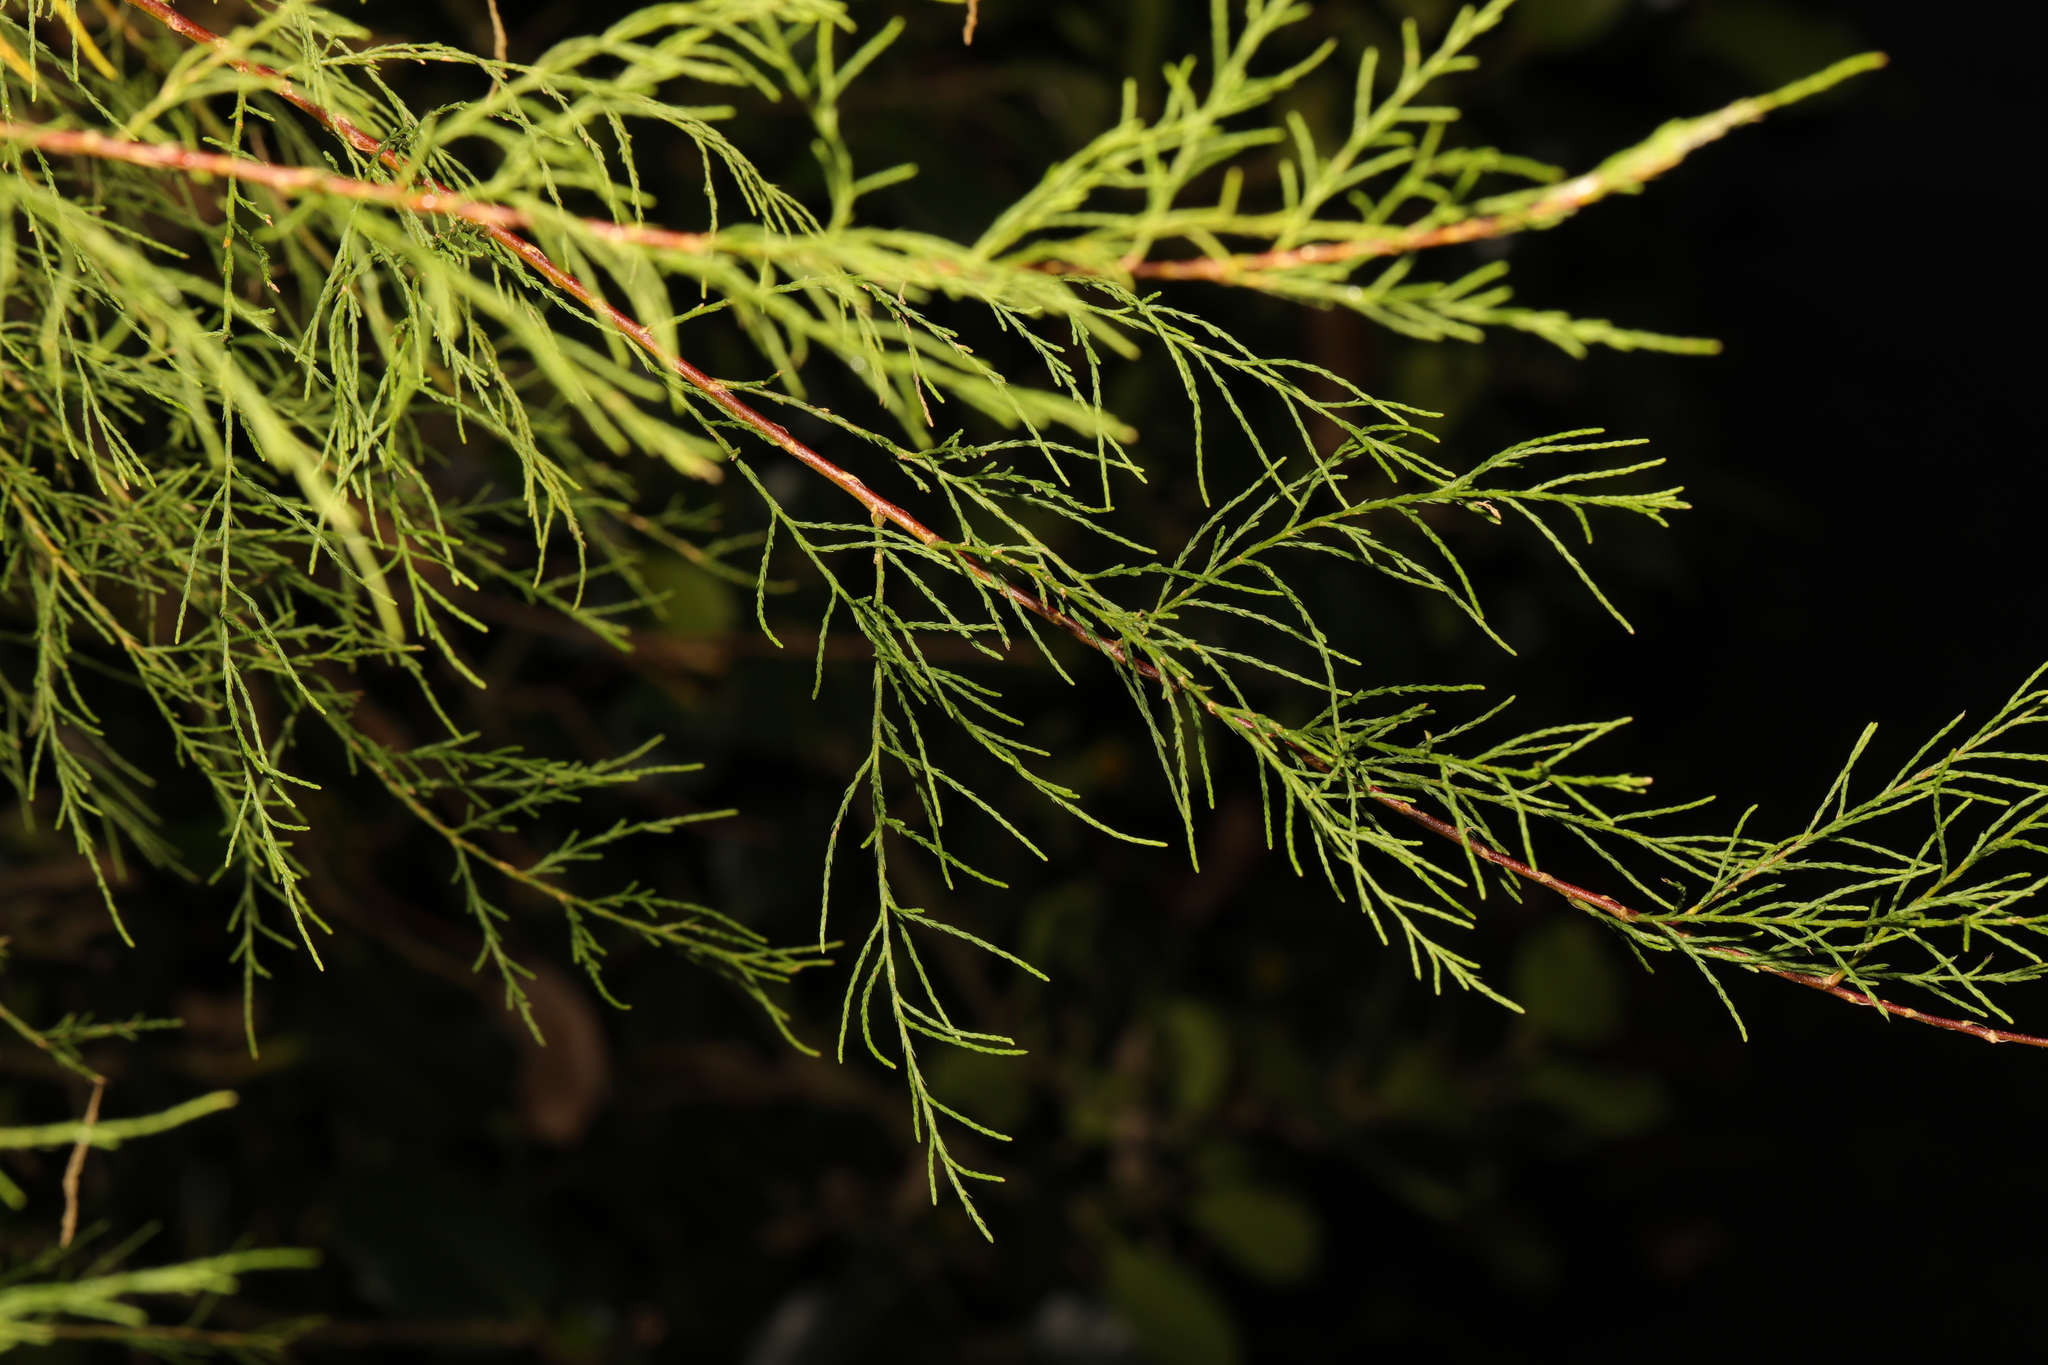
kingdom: Plantae
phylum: Tracheophyta
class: Magnoliopsida
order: Caryophyllales
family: Tamaricaceae
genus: Tamarix
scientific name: Tamarix gallica
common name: Tamarisk
